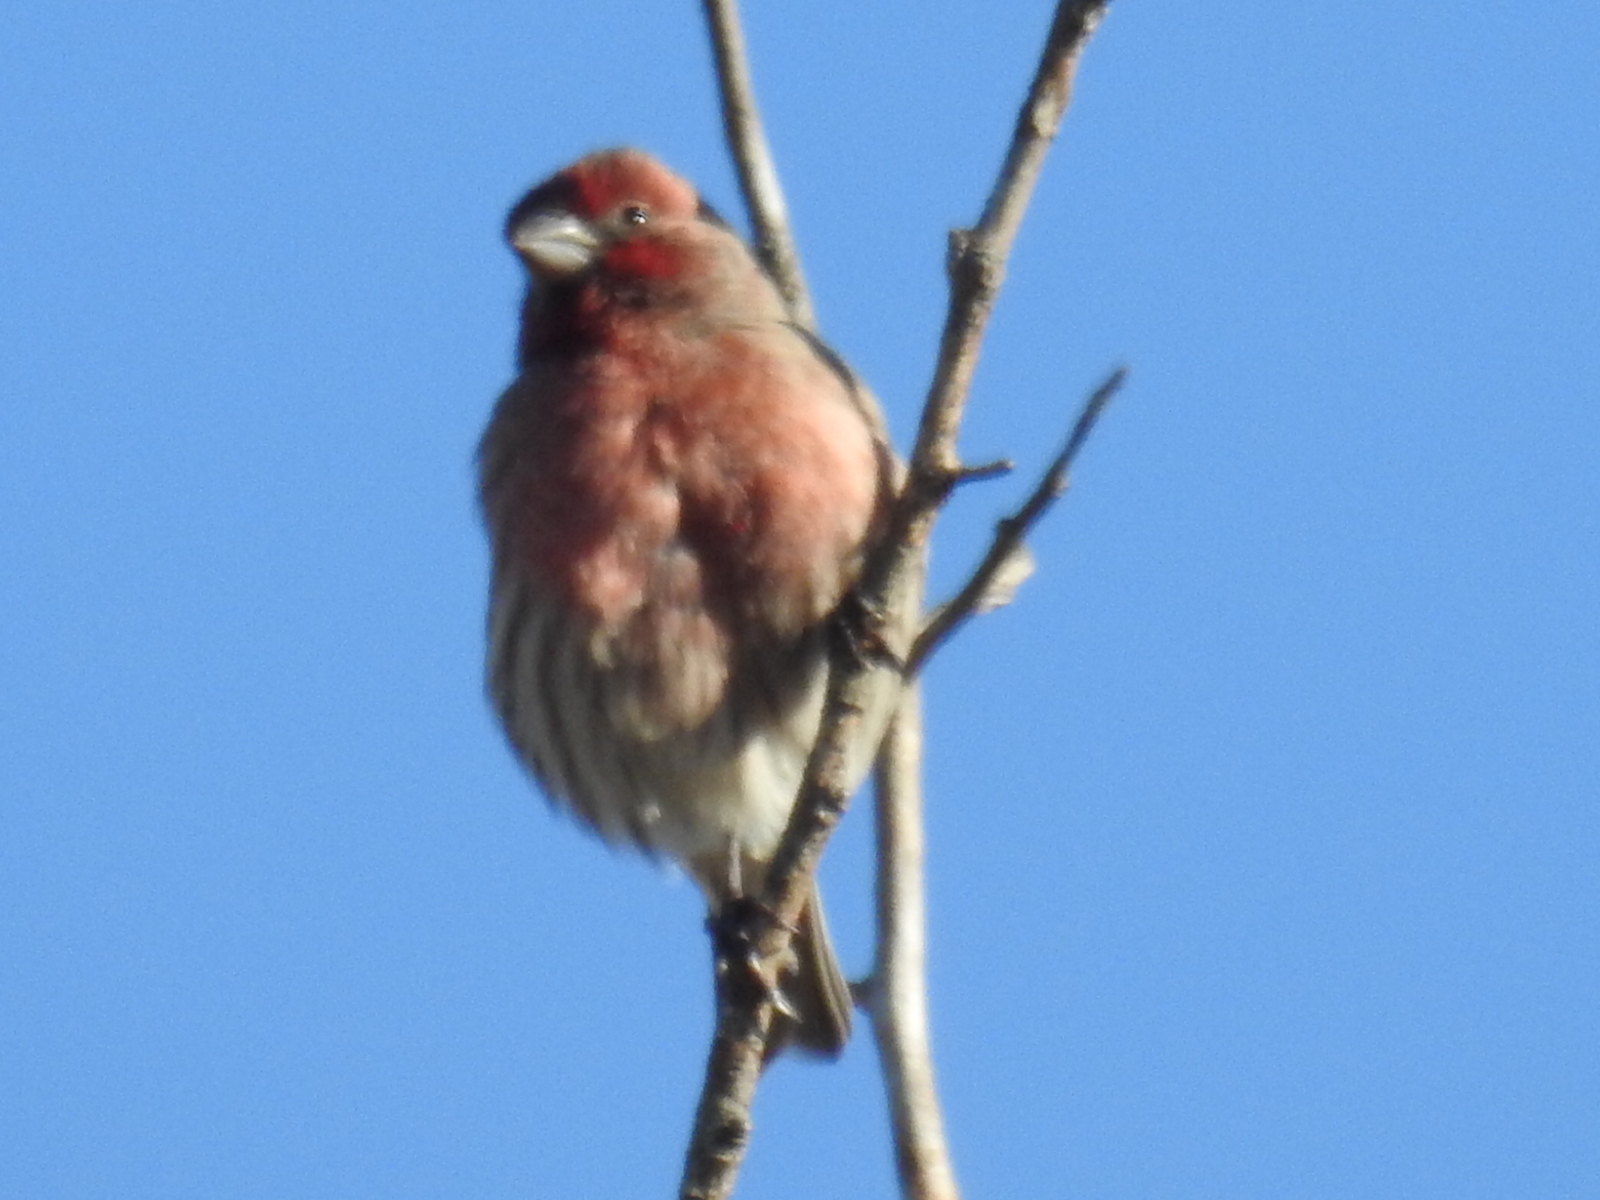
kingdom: Animalia
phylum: Chordata
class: Aves
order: Passeriformes
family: Fringillidae
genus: Haemorhous
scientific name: Haemorhous mexicanus
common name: House finch
